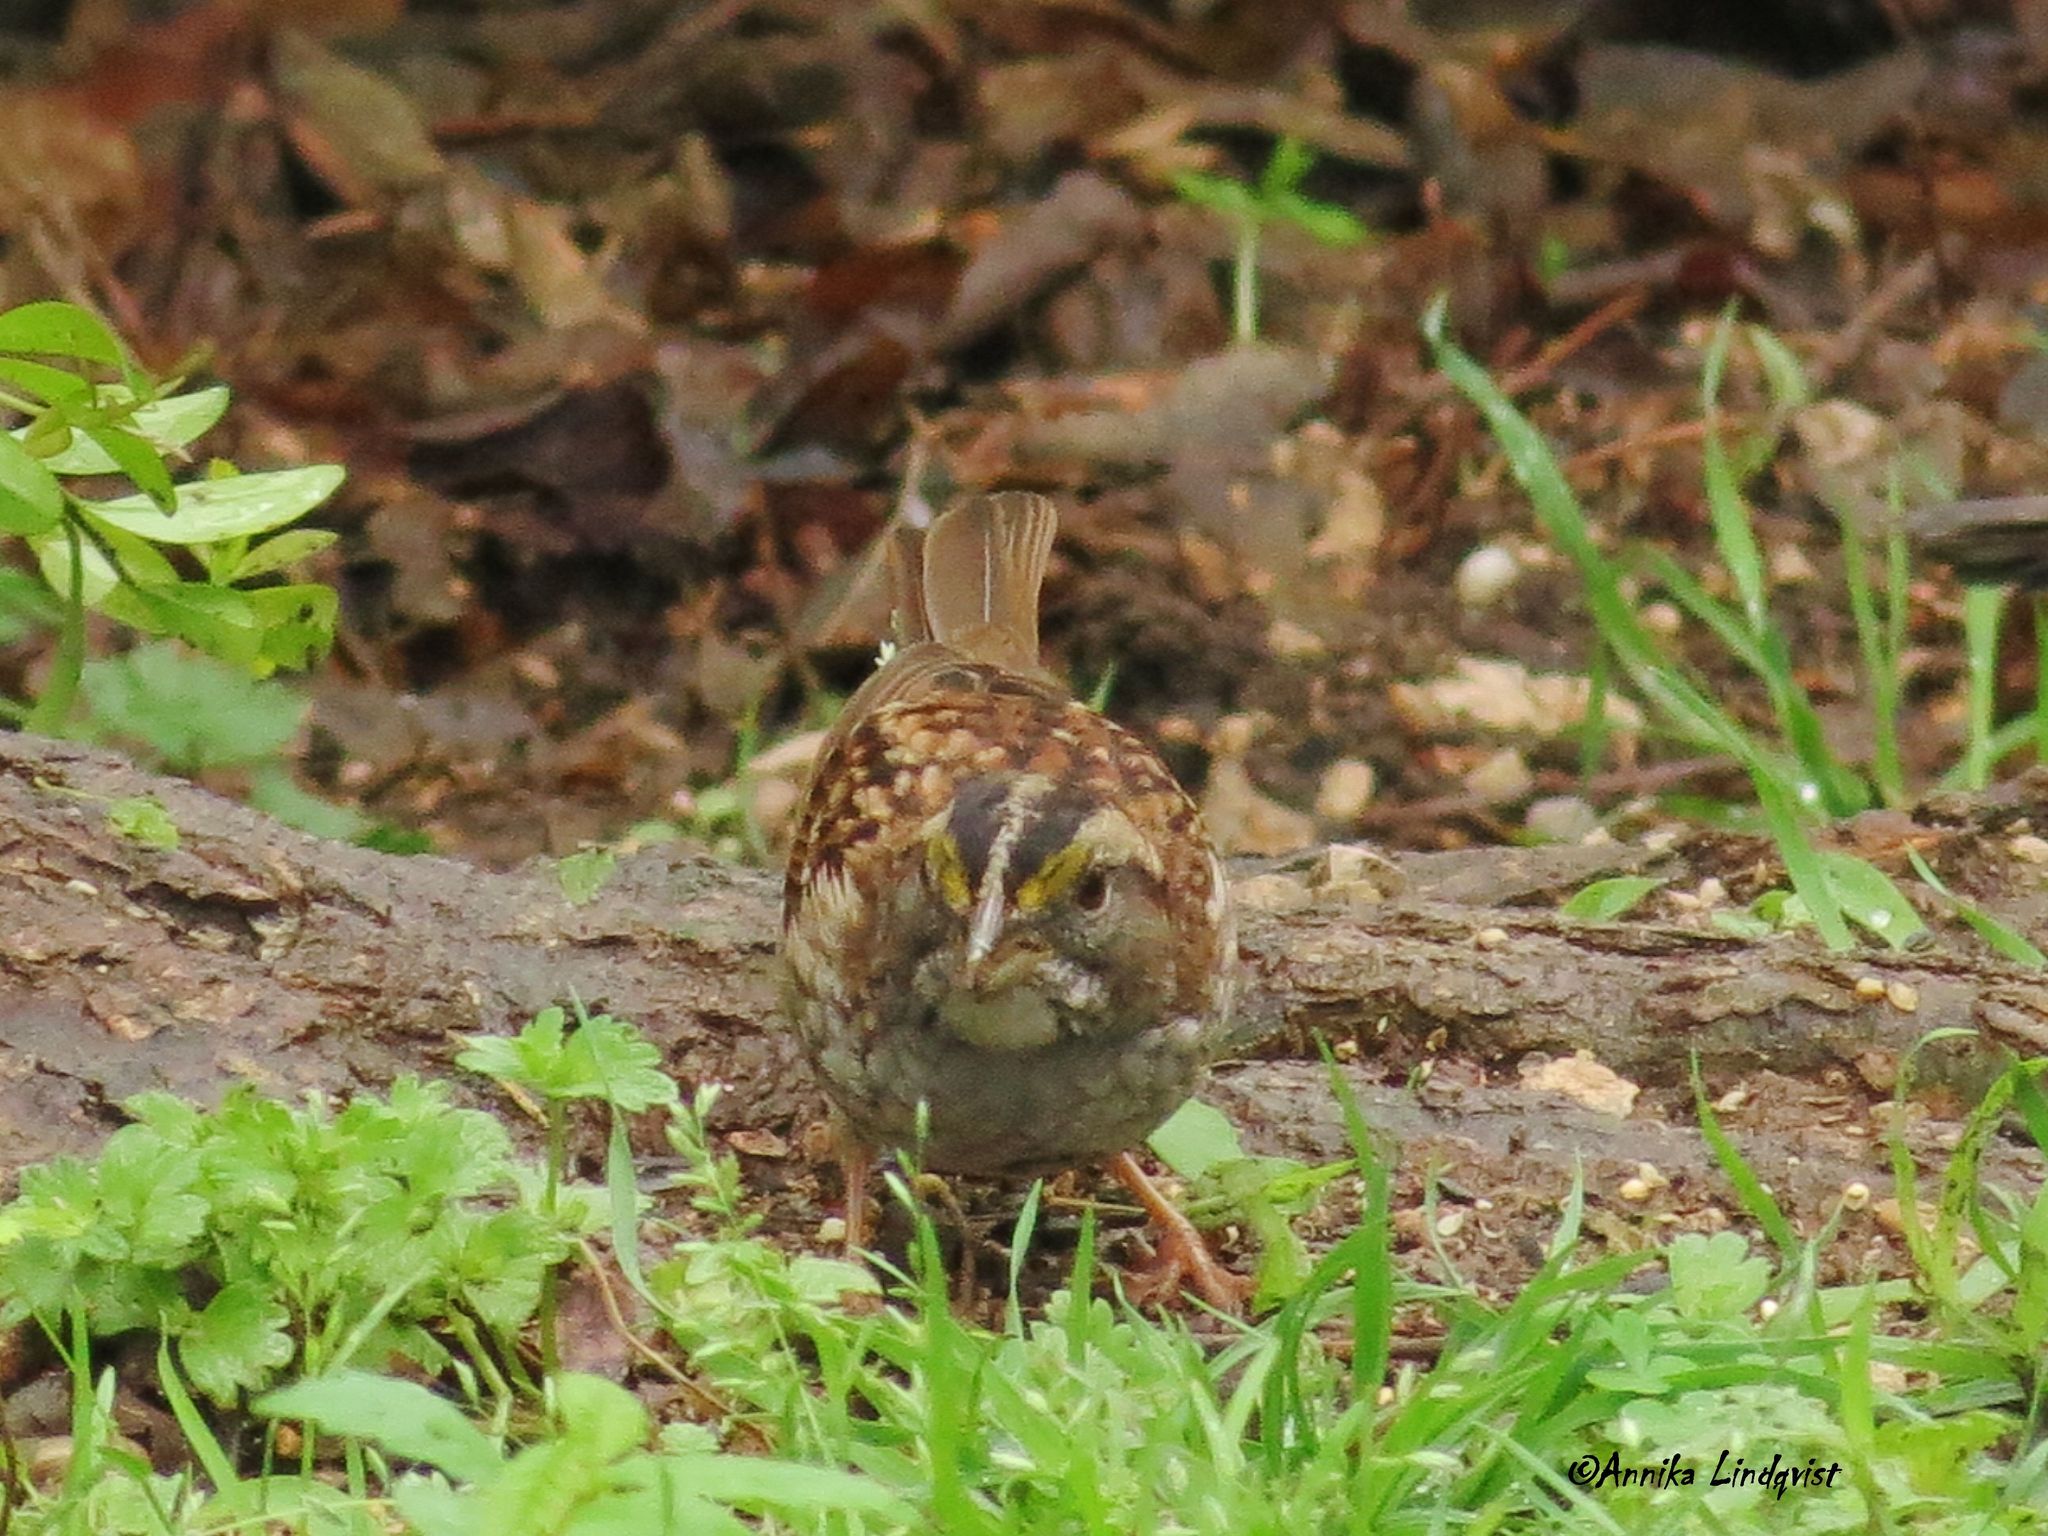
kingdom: Animalia
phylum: Chordata
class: Aves
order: Passeriformes
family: Passerellidae
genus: Zonotrichia
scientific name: Zonotrichia albicollis
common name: White-throated sparrow
